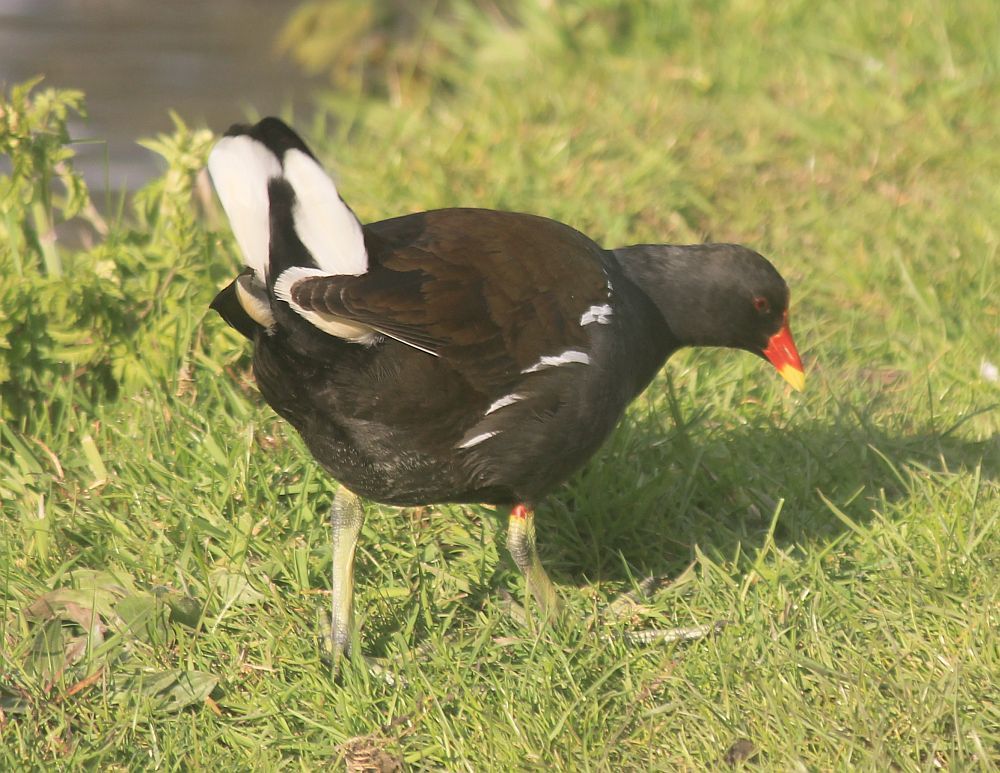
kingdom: Animalia
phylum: Chordata
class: Aves
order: Gruiformes
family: Rallidae
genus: Gallinula
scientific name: Gallinula chloropus
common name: Common moorhen
